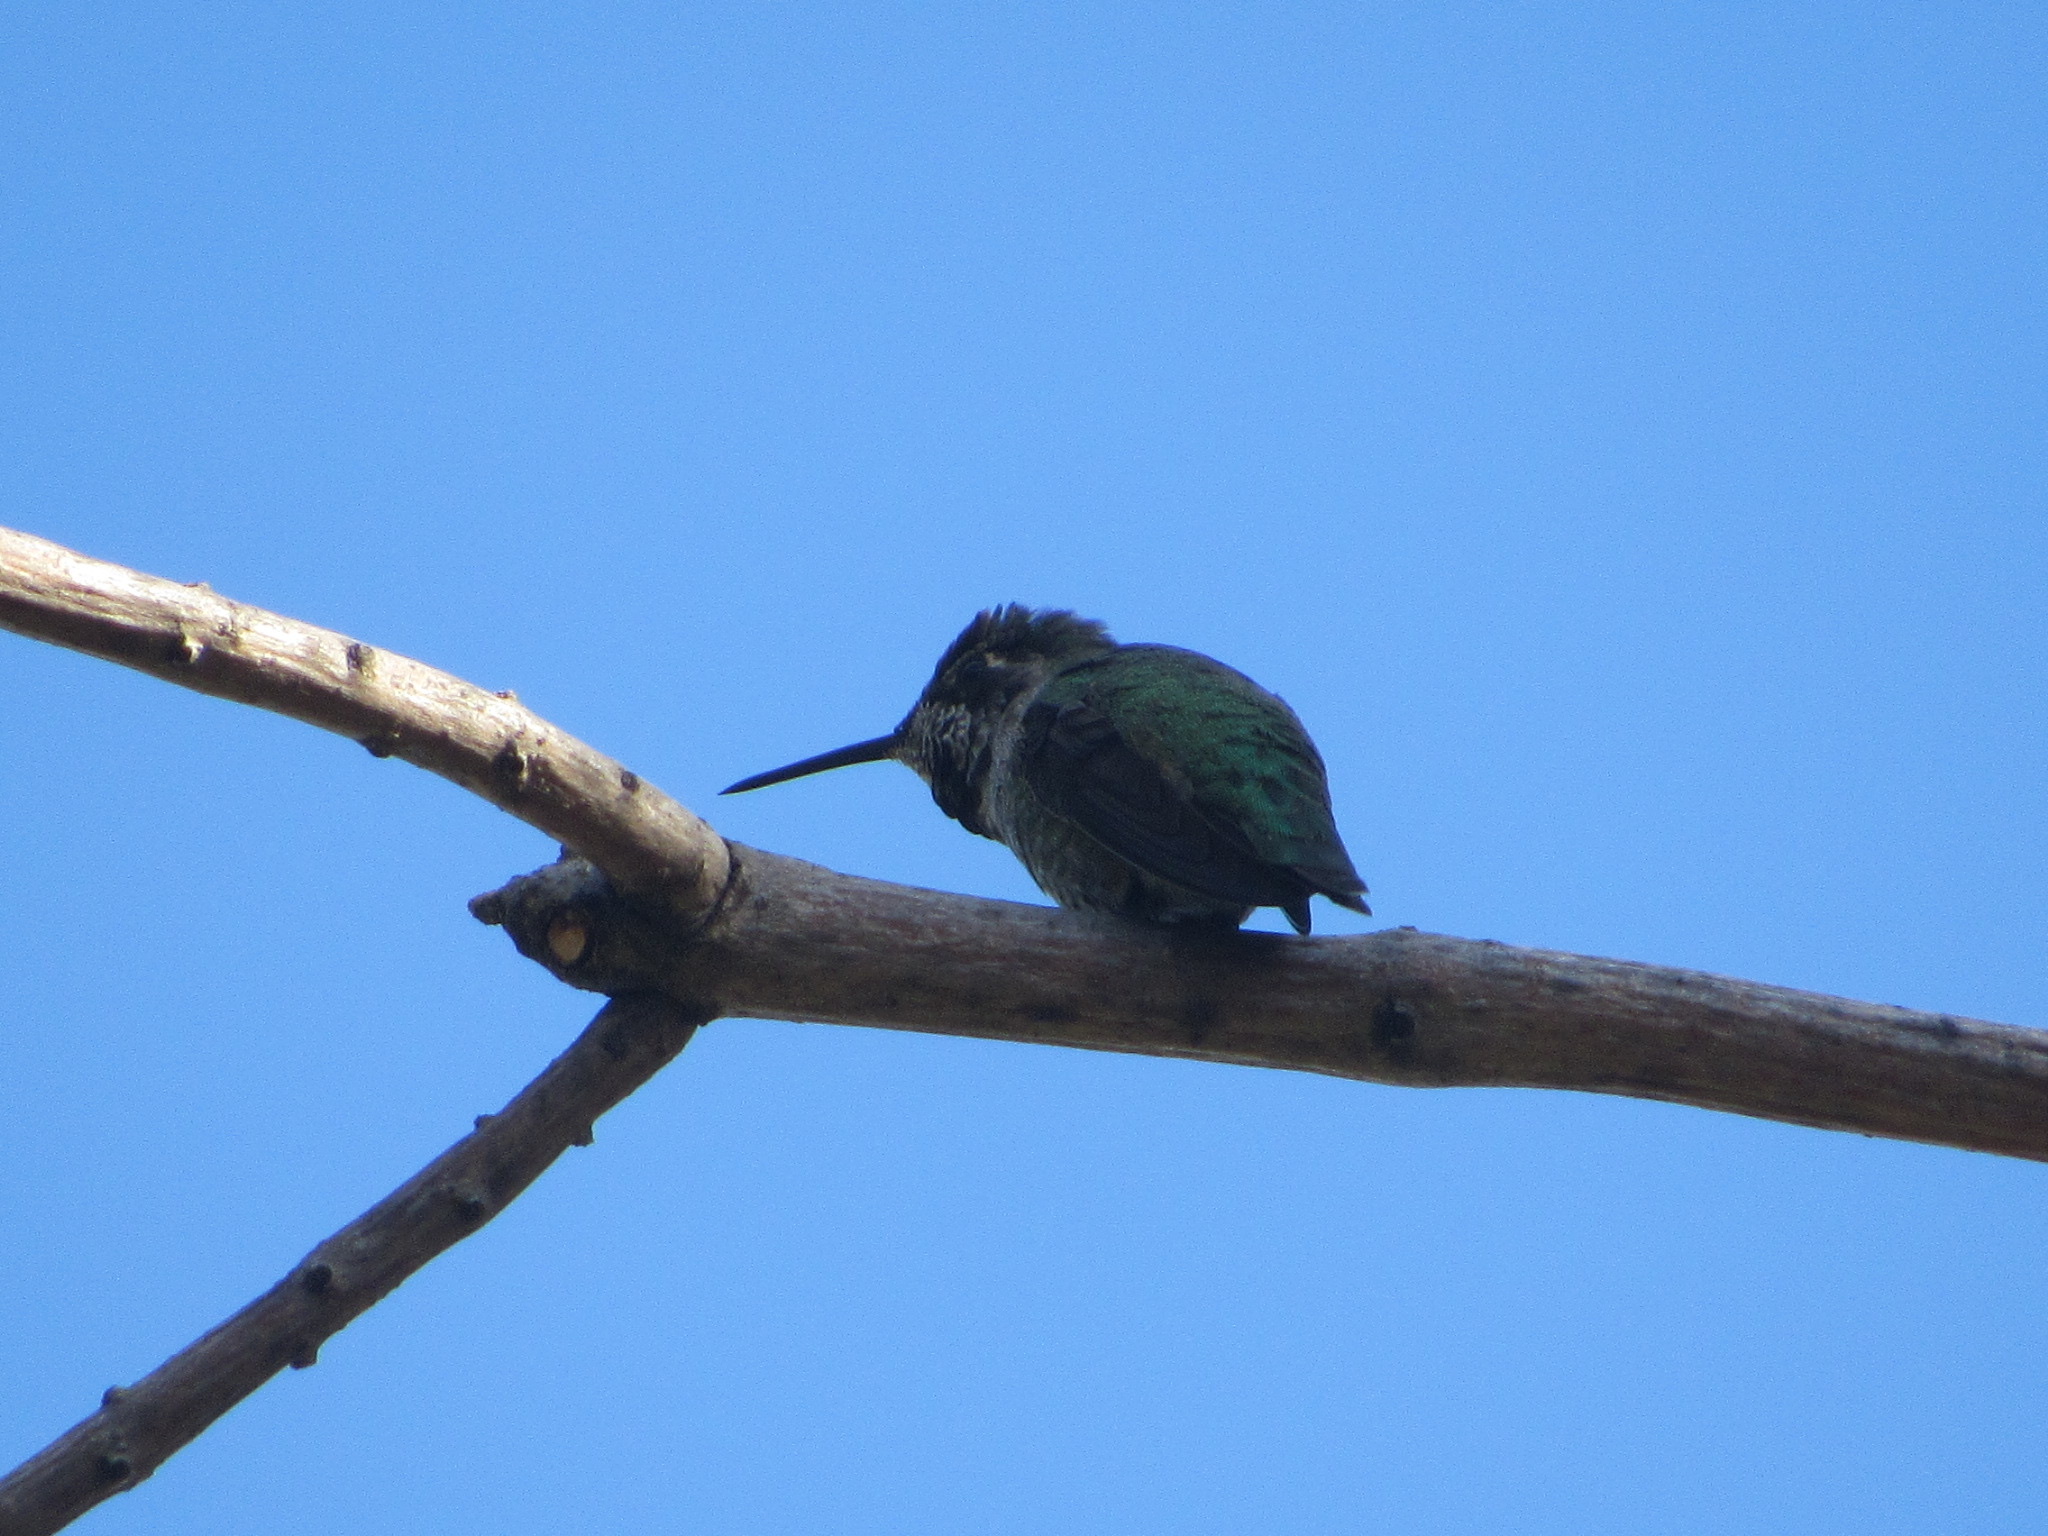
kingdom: Animalia
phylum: Chordata
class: Aves
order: Apodiformes
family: Trochilidae
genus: Calypte
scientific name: Calypte anna
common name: Anna's hummingbird
